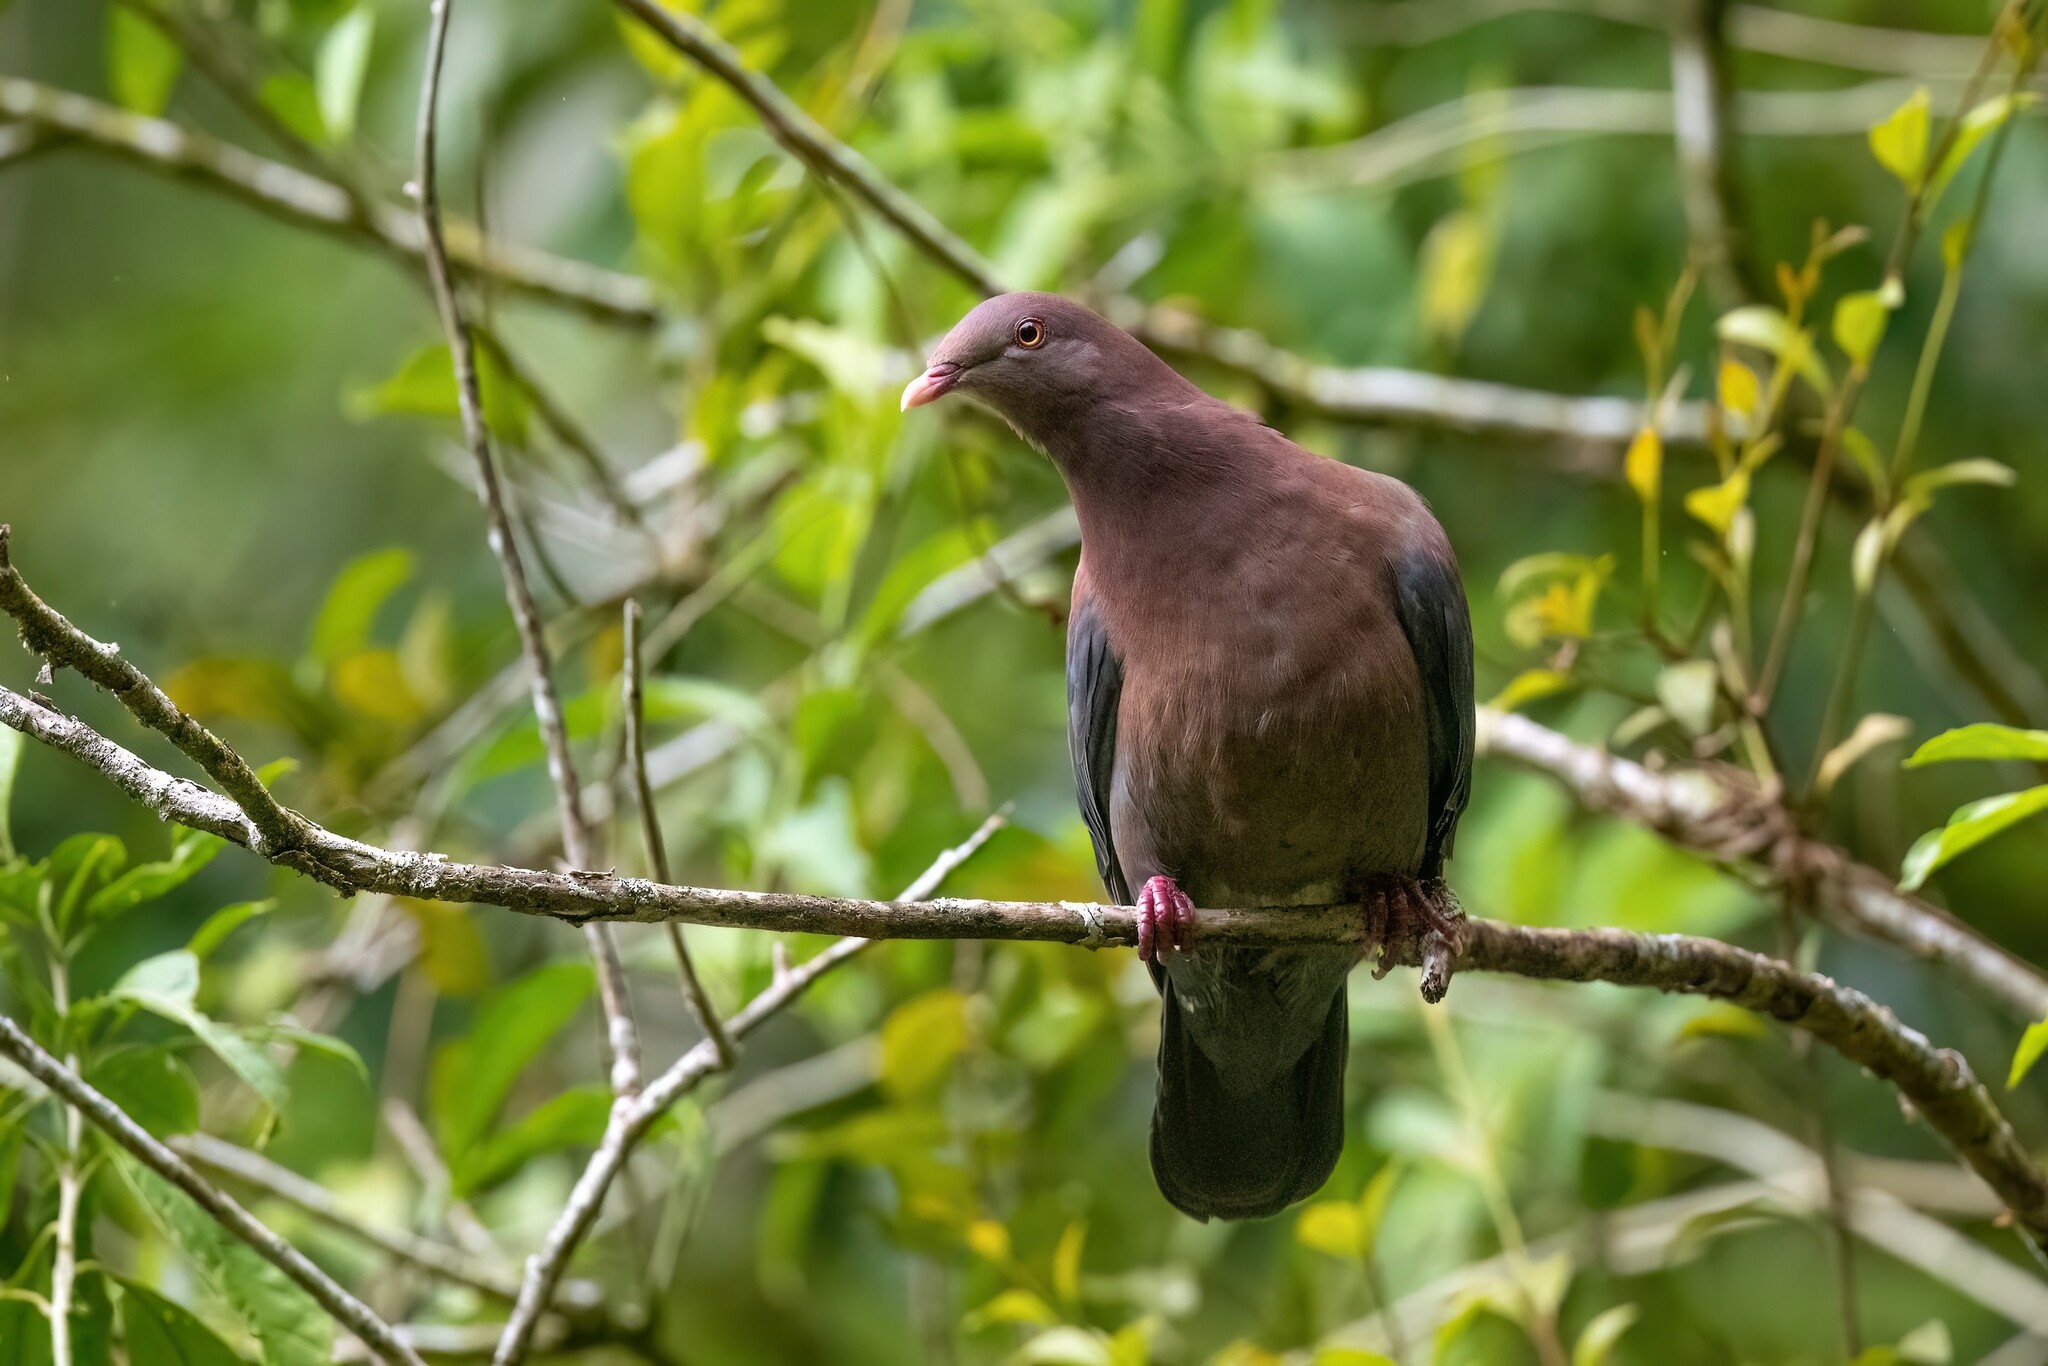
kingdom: Animalia
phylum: Chordata
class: Aves
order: Columbiformes
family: Columbidae
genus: Patagioenas
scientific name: Patagioenas flavirostris
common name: Red-billed pigeon
